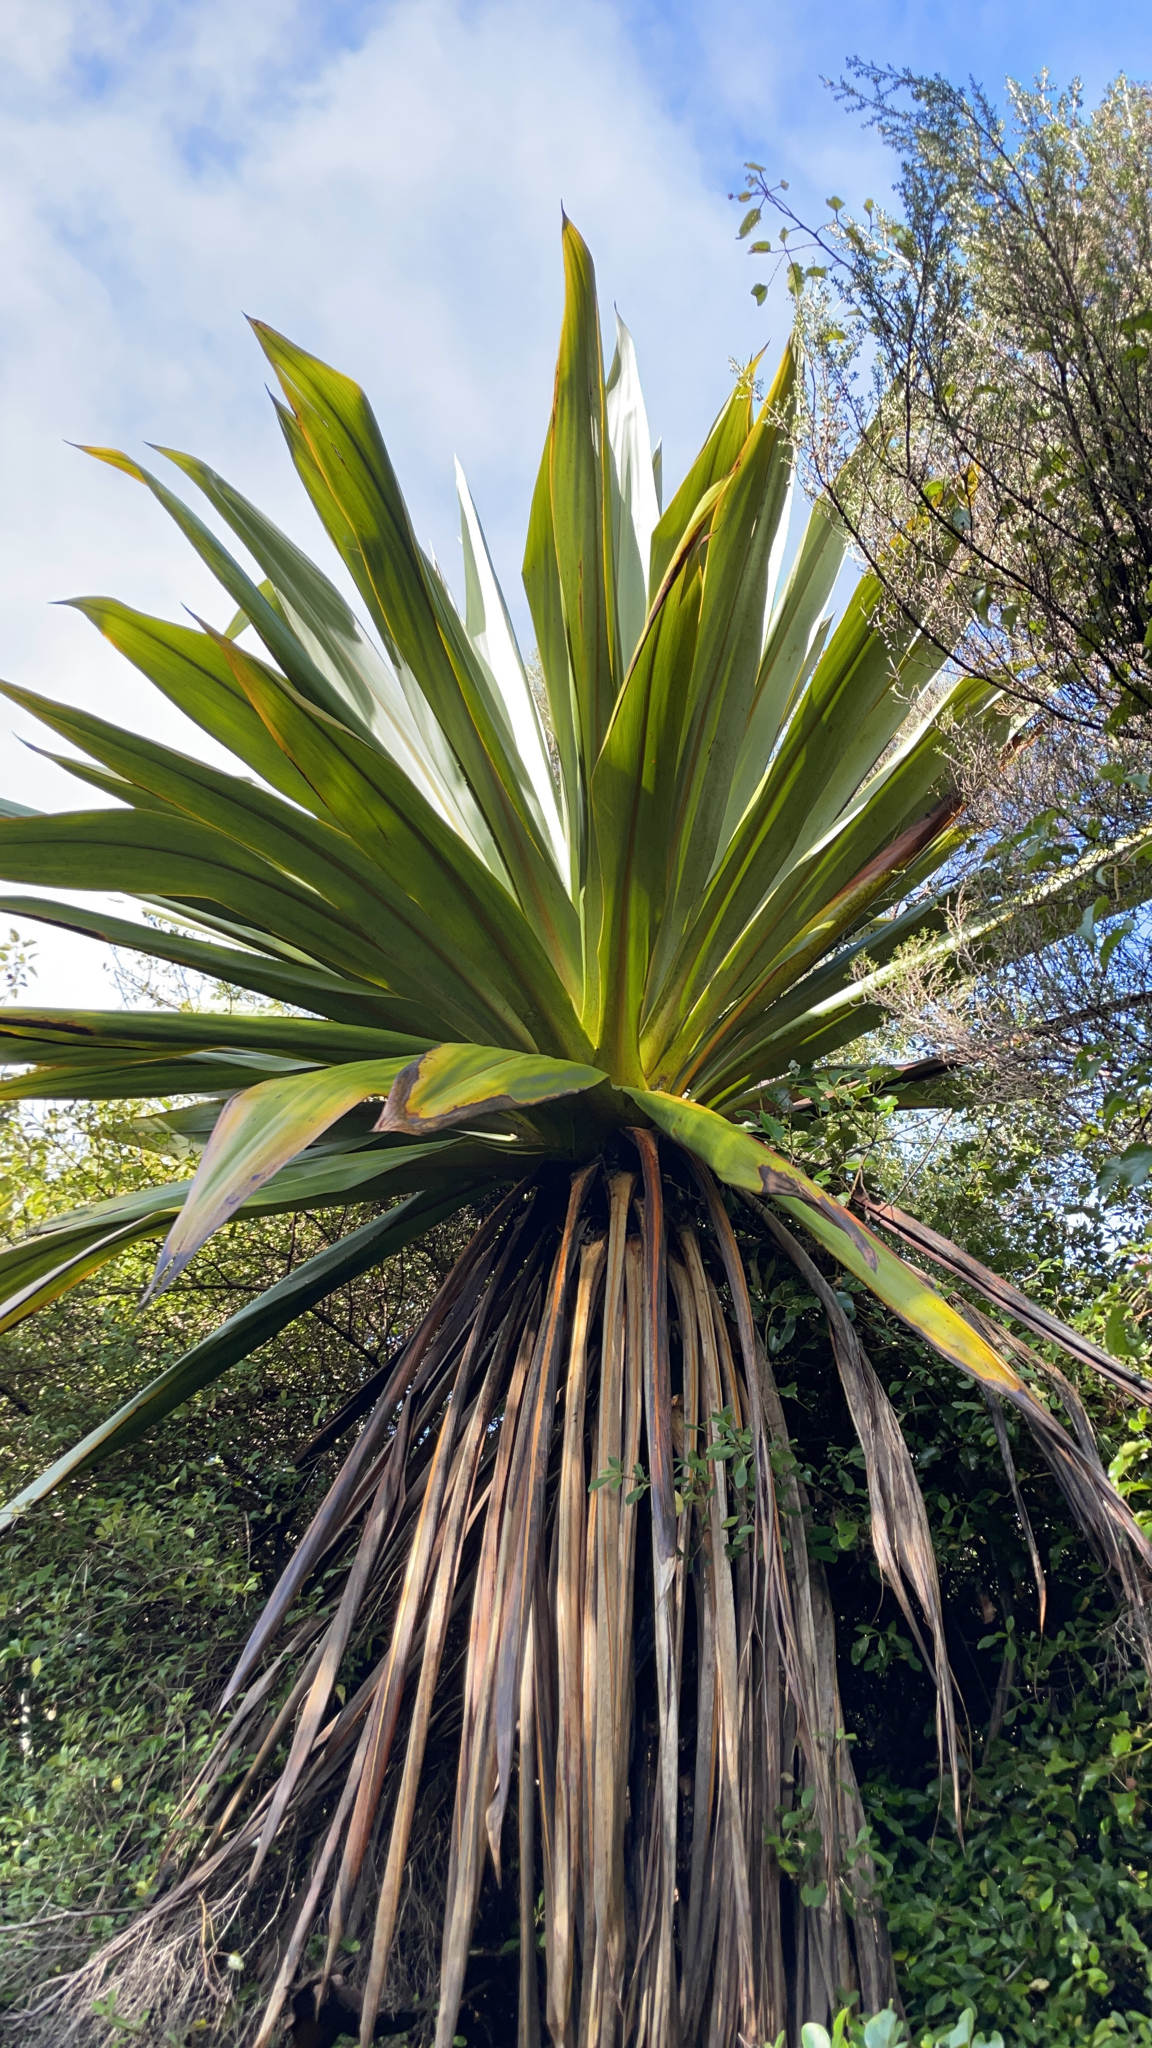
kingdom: Plantae
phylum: Tracheophyta
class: Liliopsida
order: Asparagales
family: Asparagaceae
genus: Cordyline
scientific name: Cordyline indivisa
